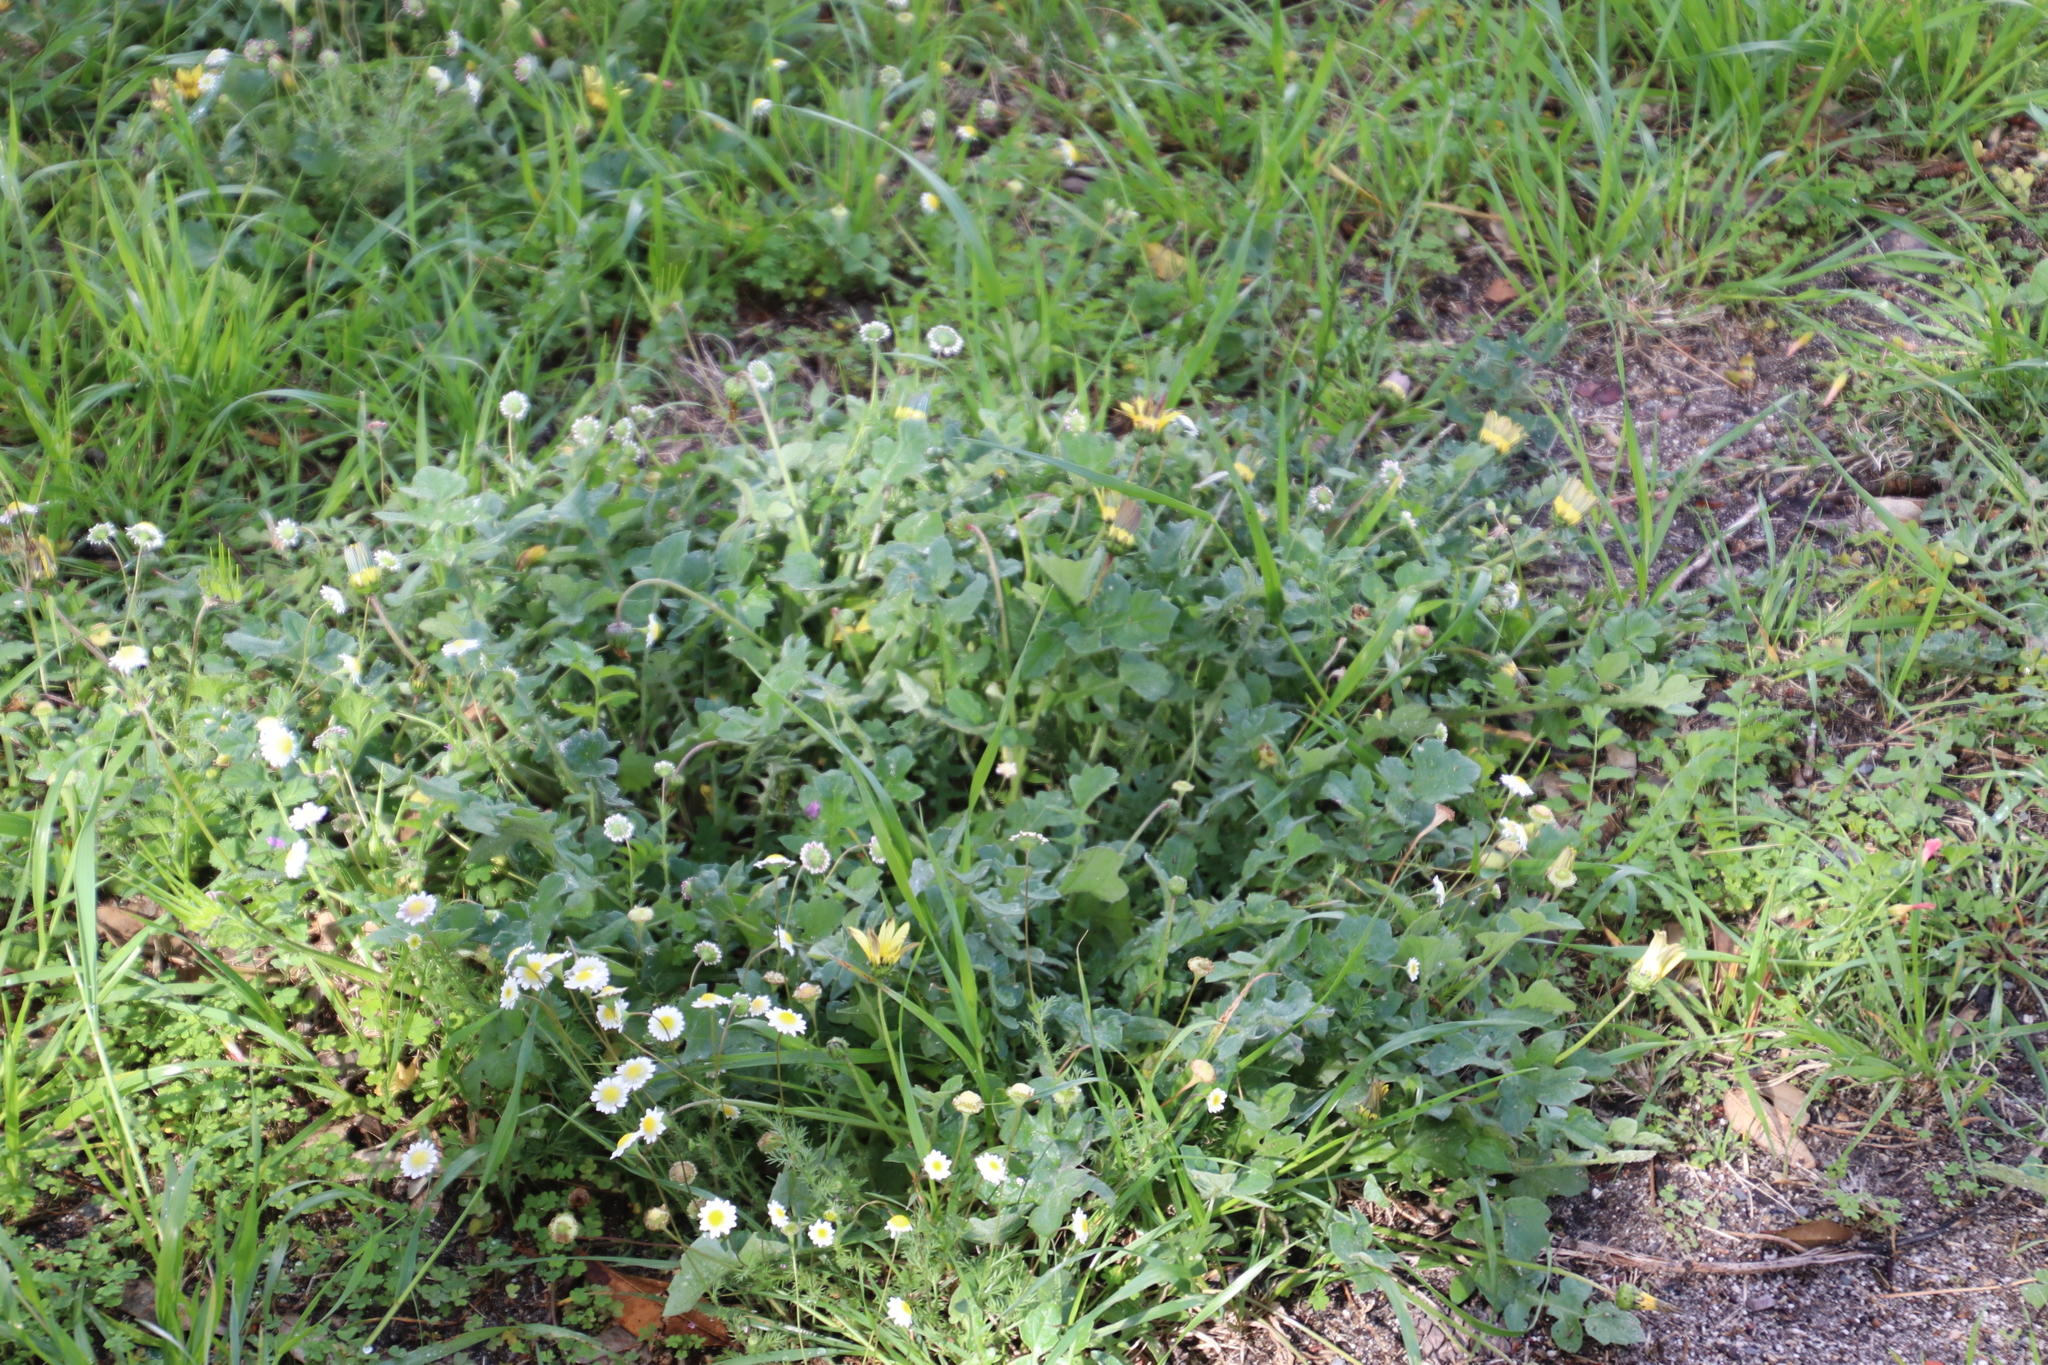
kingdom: Plantae
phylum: Tracheophyta
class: Magnoliopsida
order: Asterales
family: Asteraceae
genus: Arctotheca
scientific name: Arctotheca calendula
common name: Capeweed
